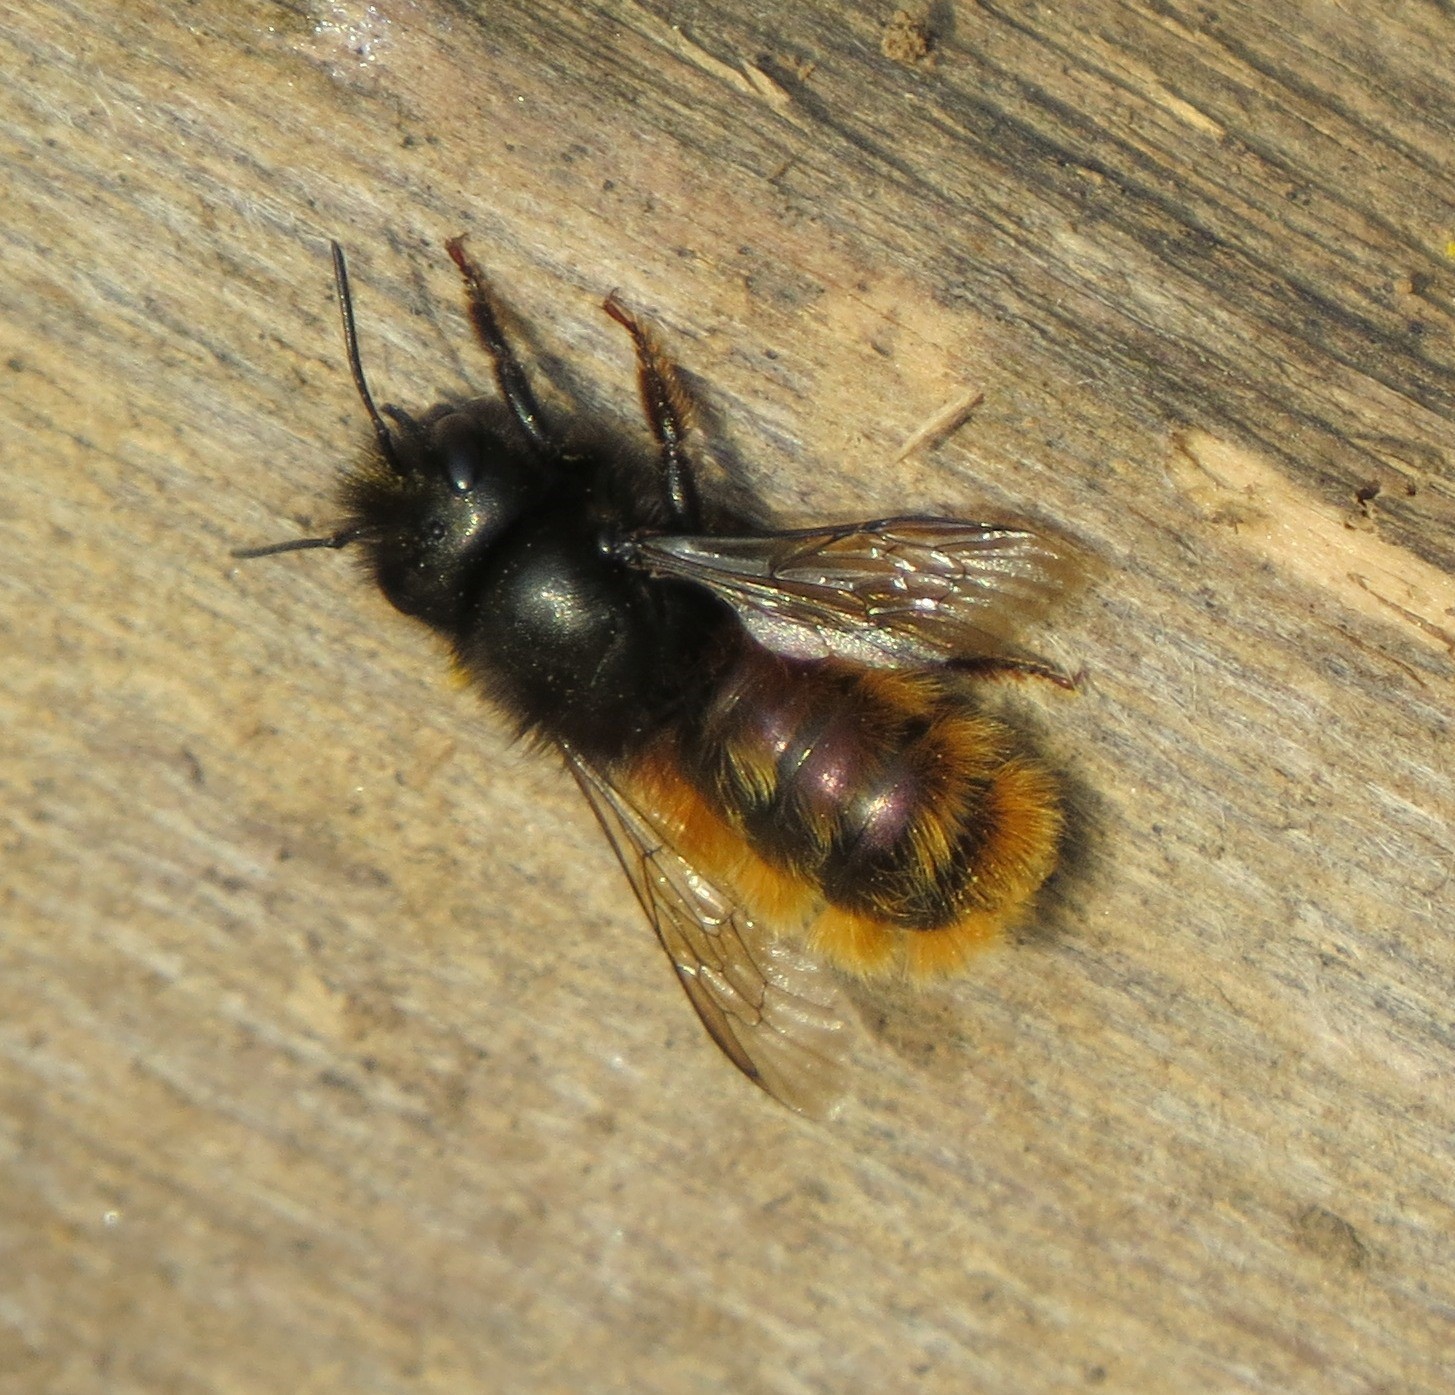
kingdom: Animalia
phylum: Arthropoda
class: Insecta
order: Hymenoptera
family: Megachilidae
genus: Osmia
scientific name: Osmia cornuta
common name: Mason bee
